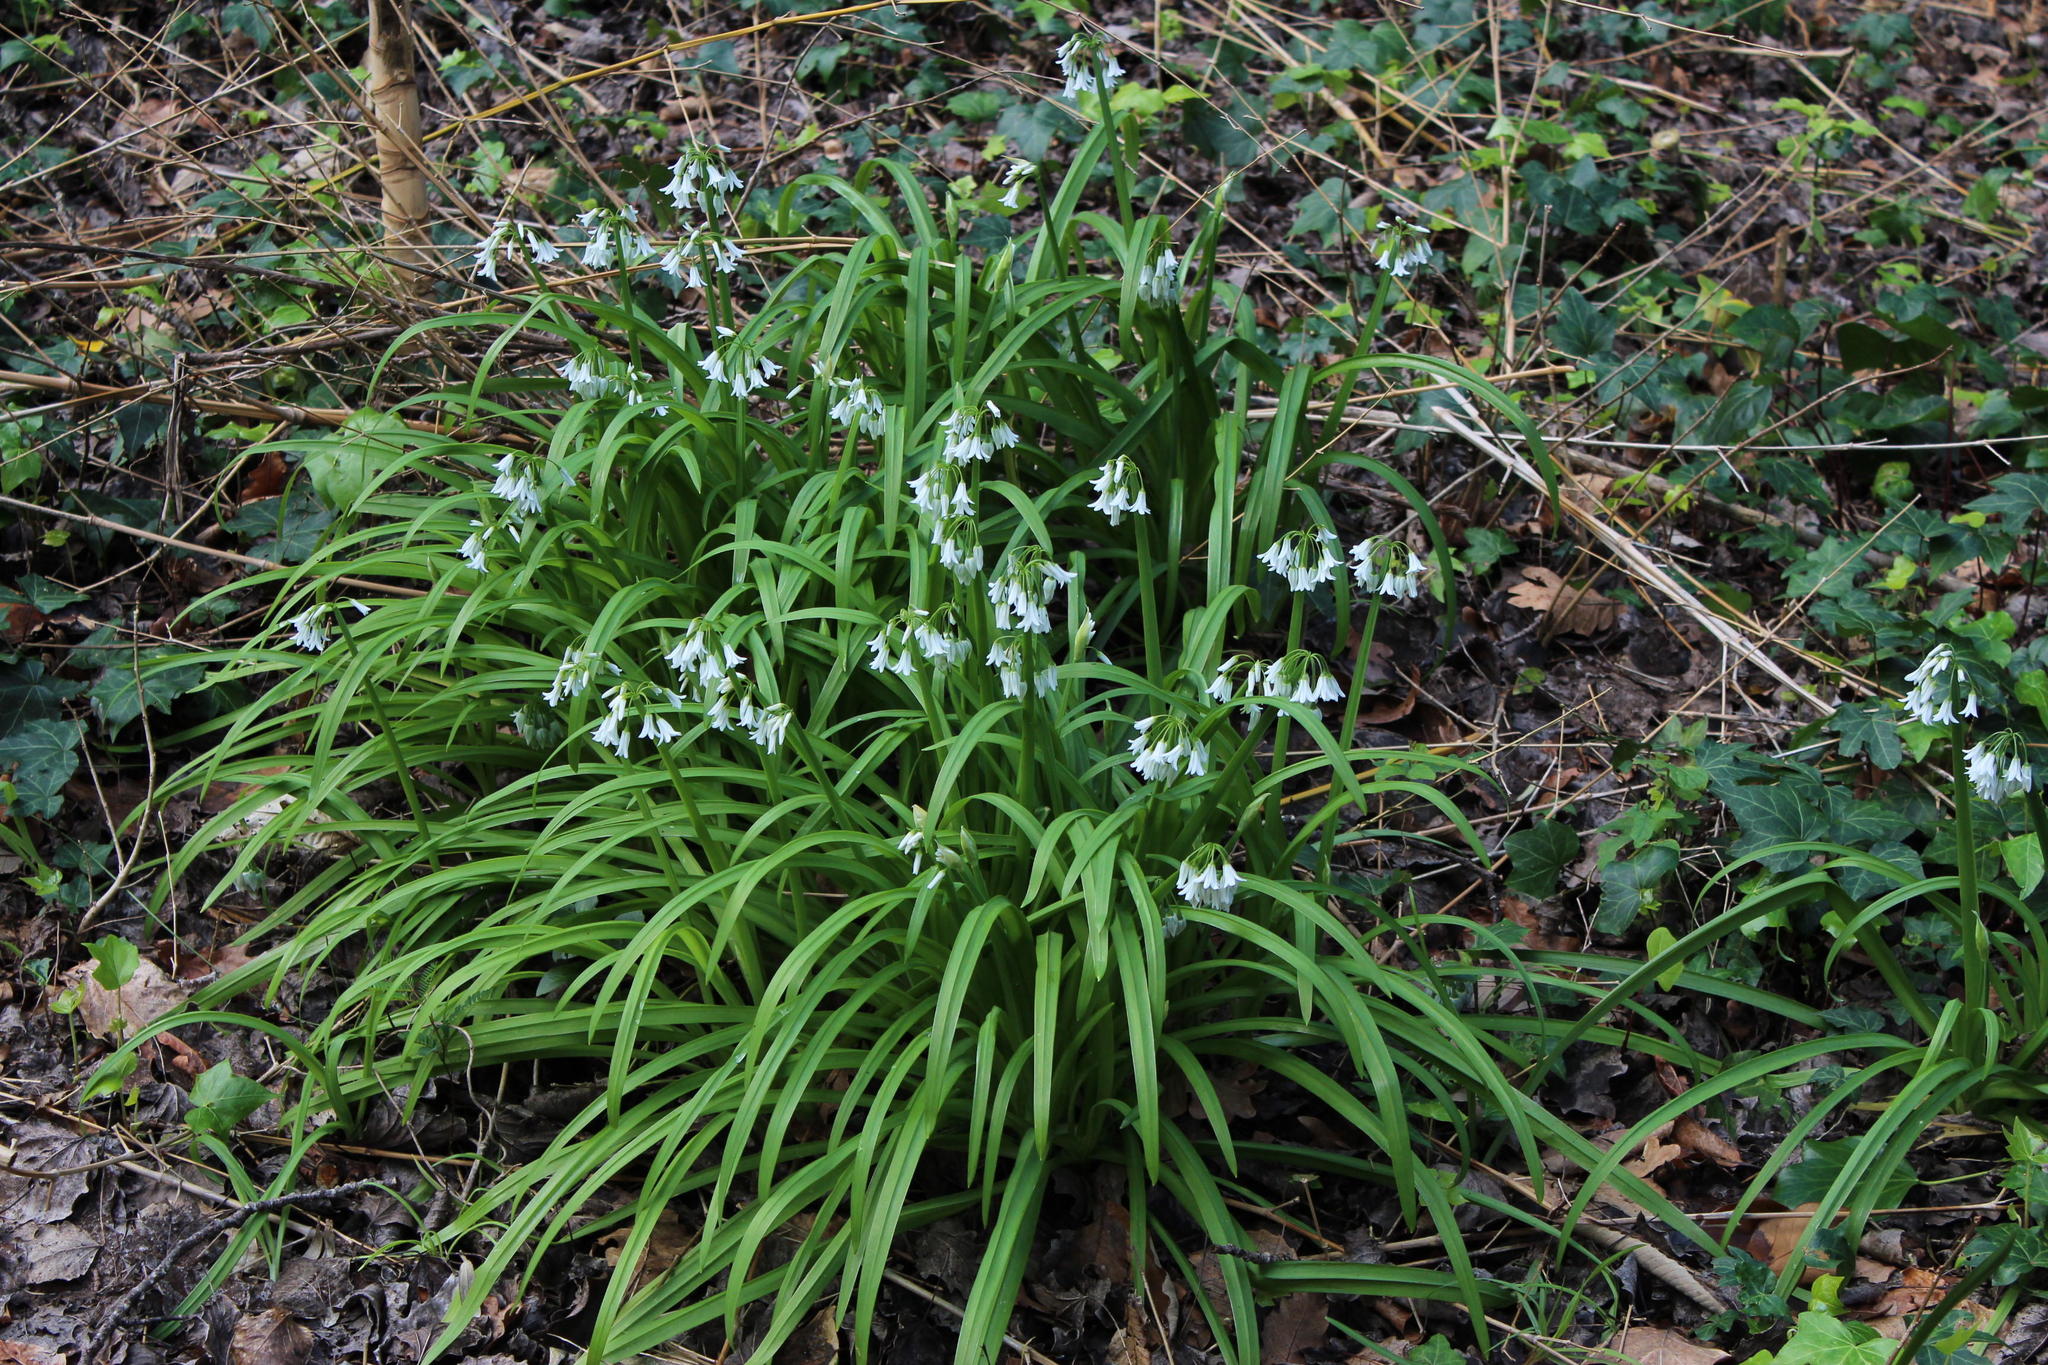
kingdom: Plantae
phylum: Tracheophyta
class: Liliopsida
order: Asparagales
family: Amaryllidaceae
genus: Allium
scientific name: Allium triquetrum
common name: Three-cornered garlic
